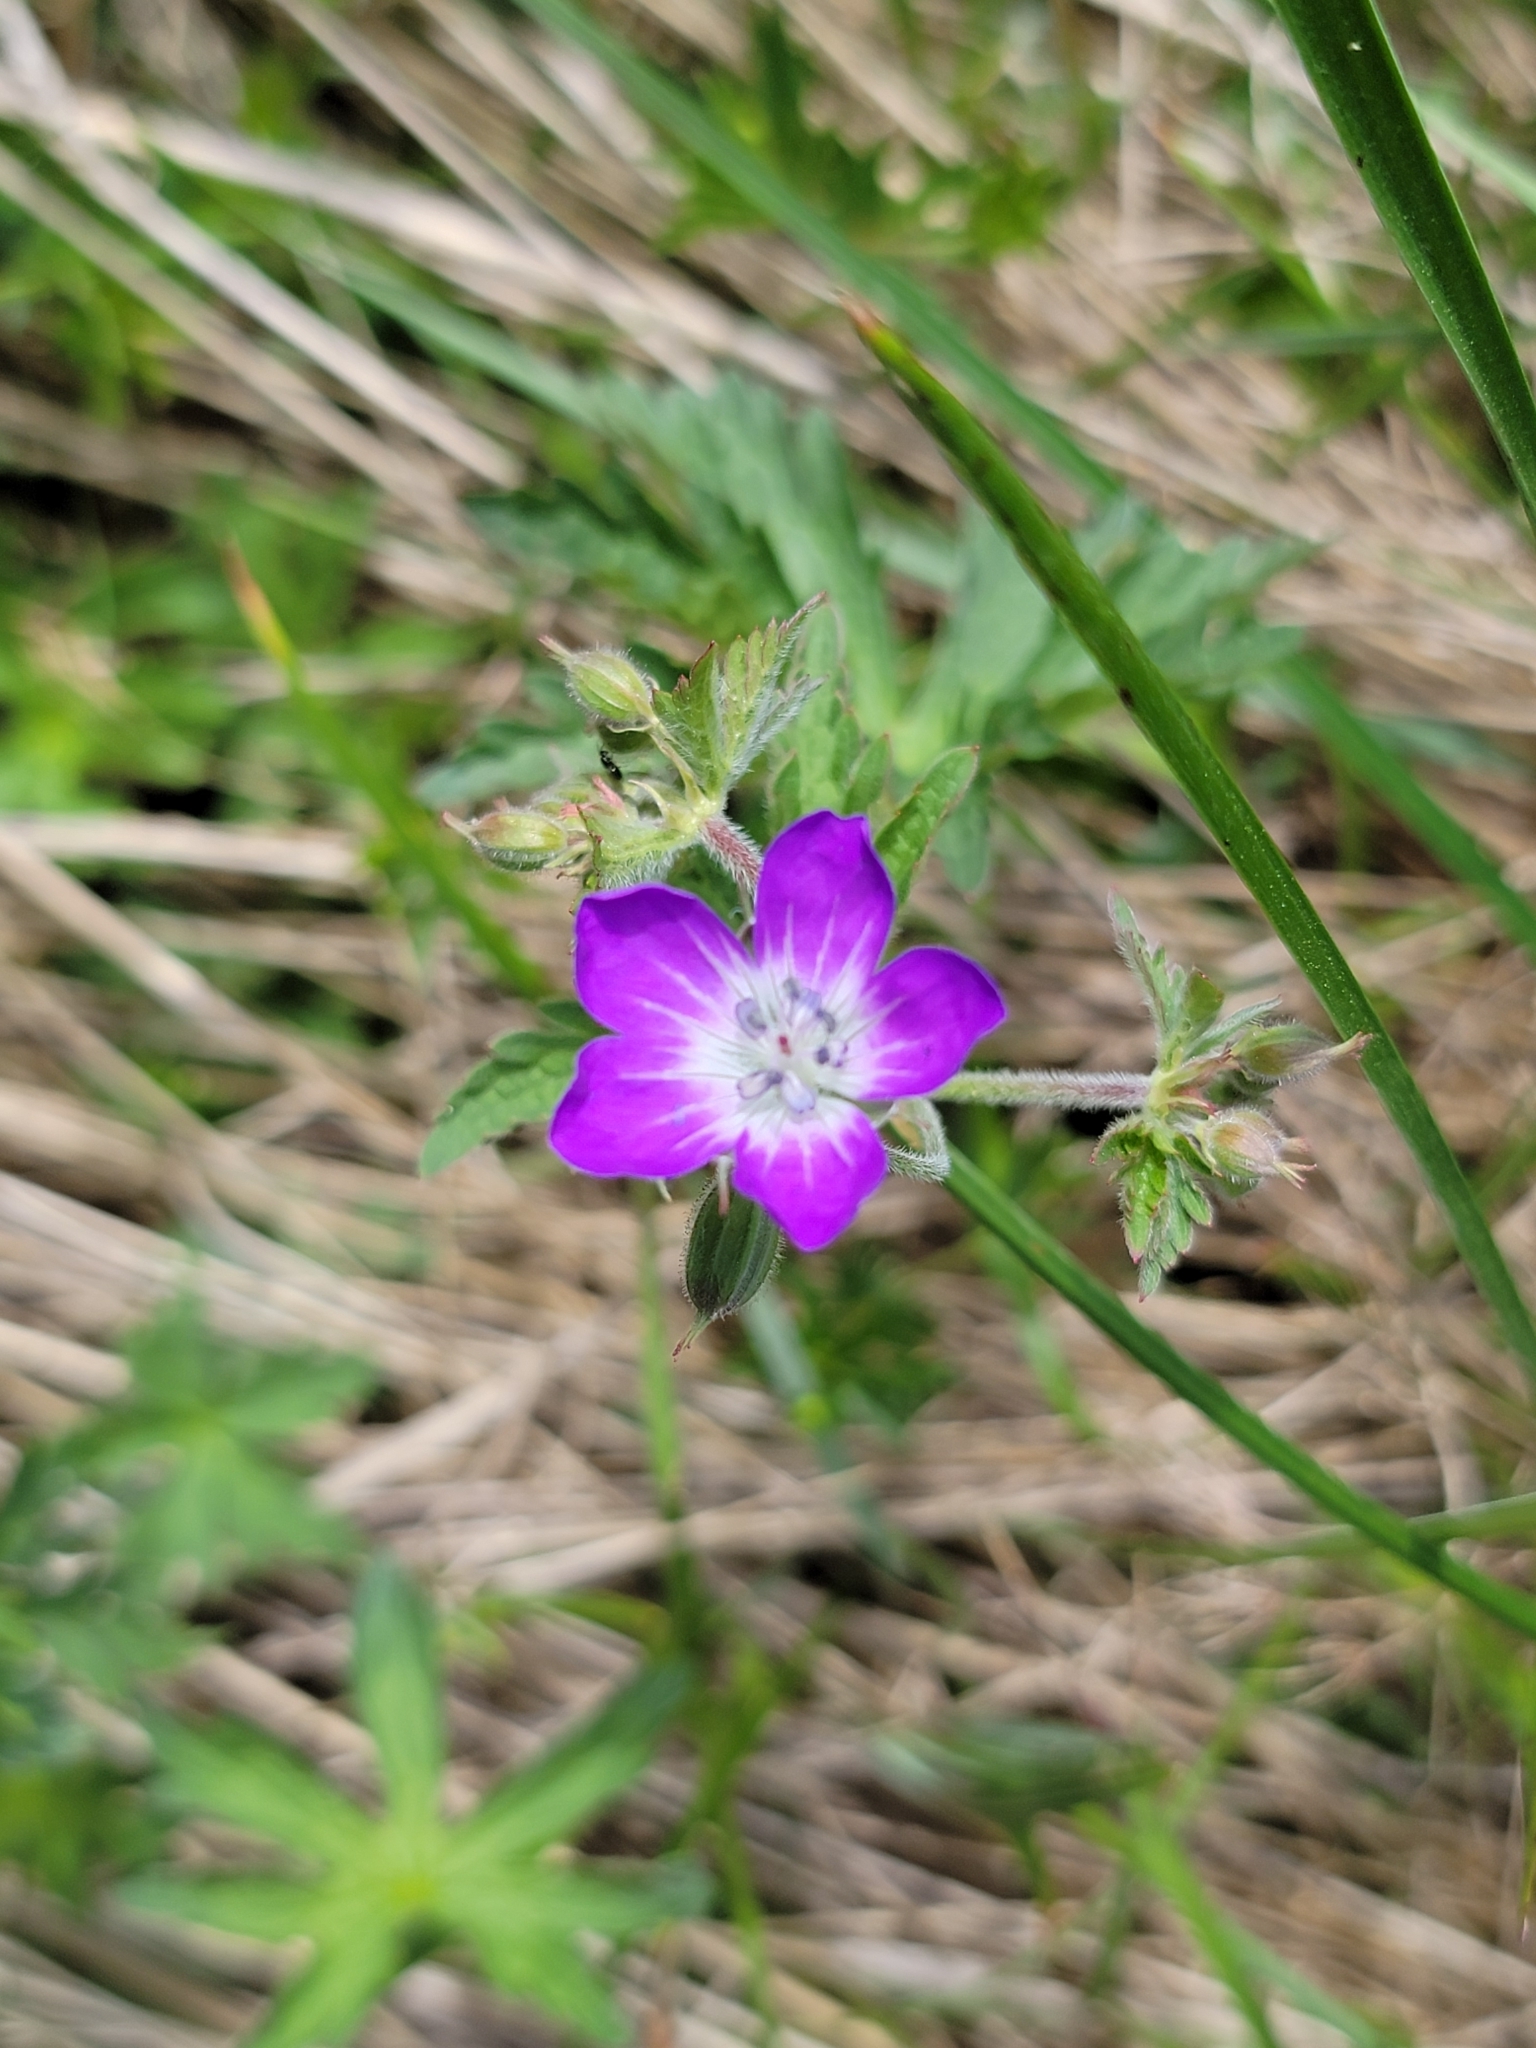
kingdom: Plantae
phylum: Tracheophyta
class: Magnoliopsida
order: Geraniales
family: Geraniaceae
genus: Geranium
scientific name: Geranium sylvaticum
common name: Wood crane's-bill
